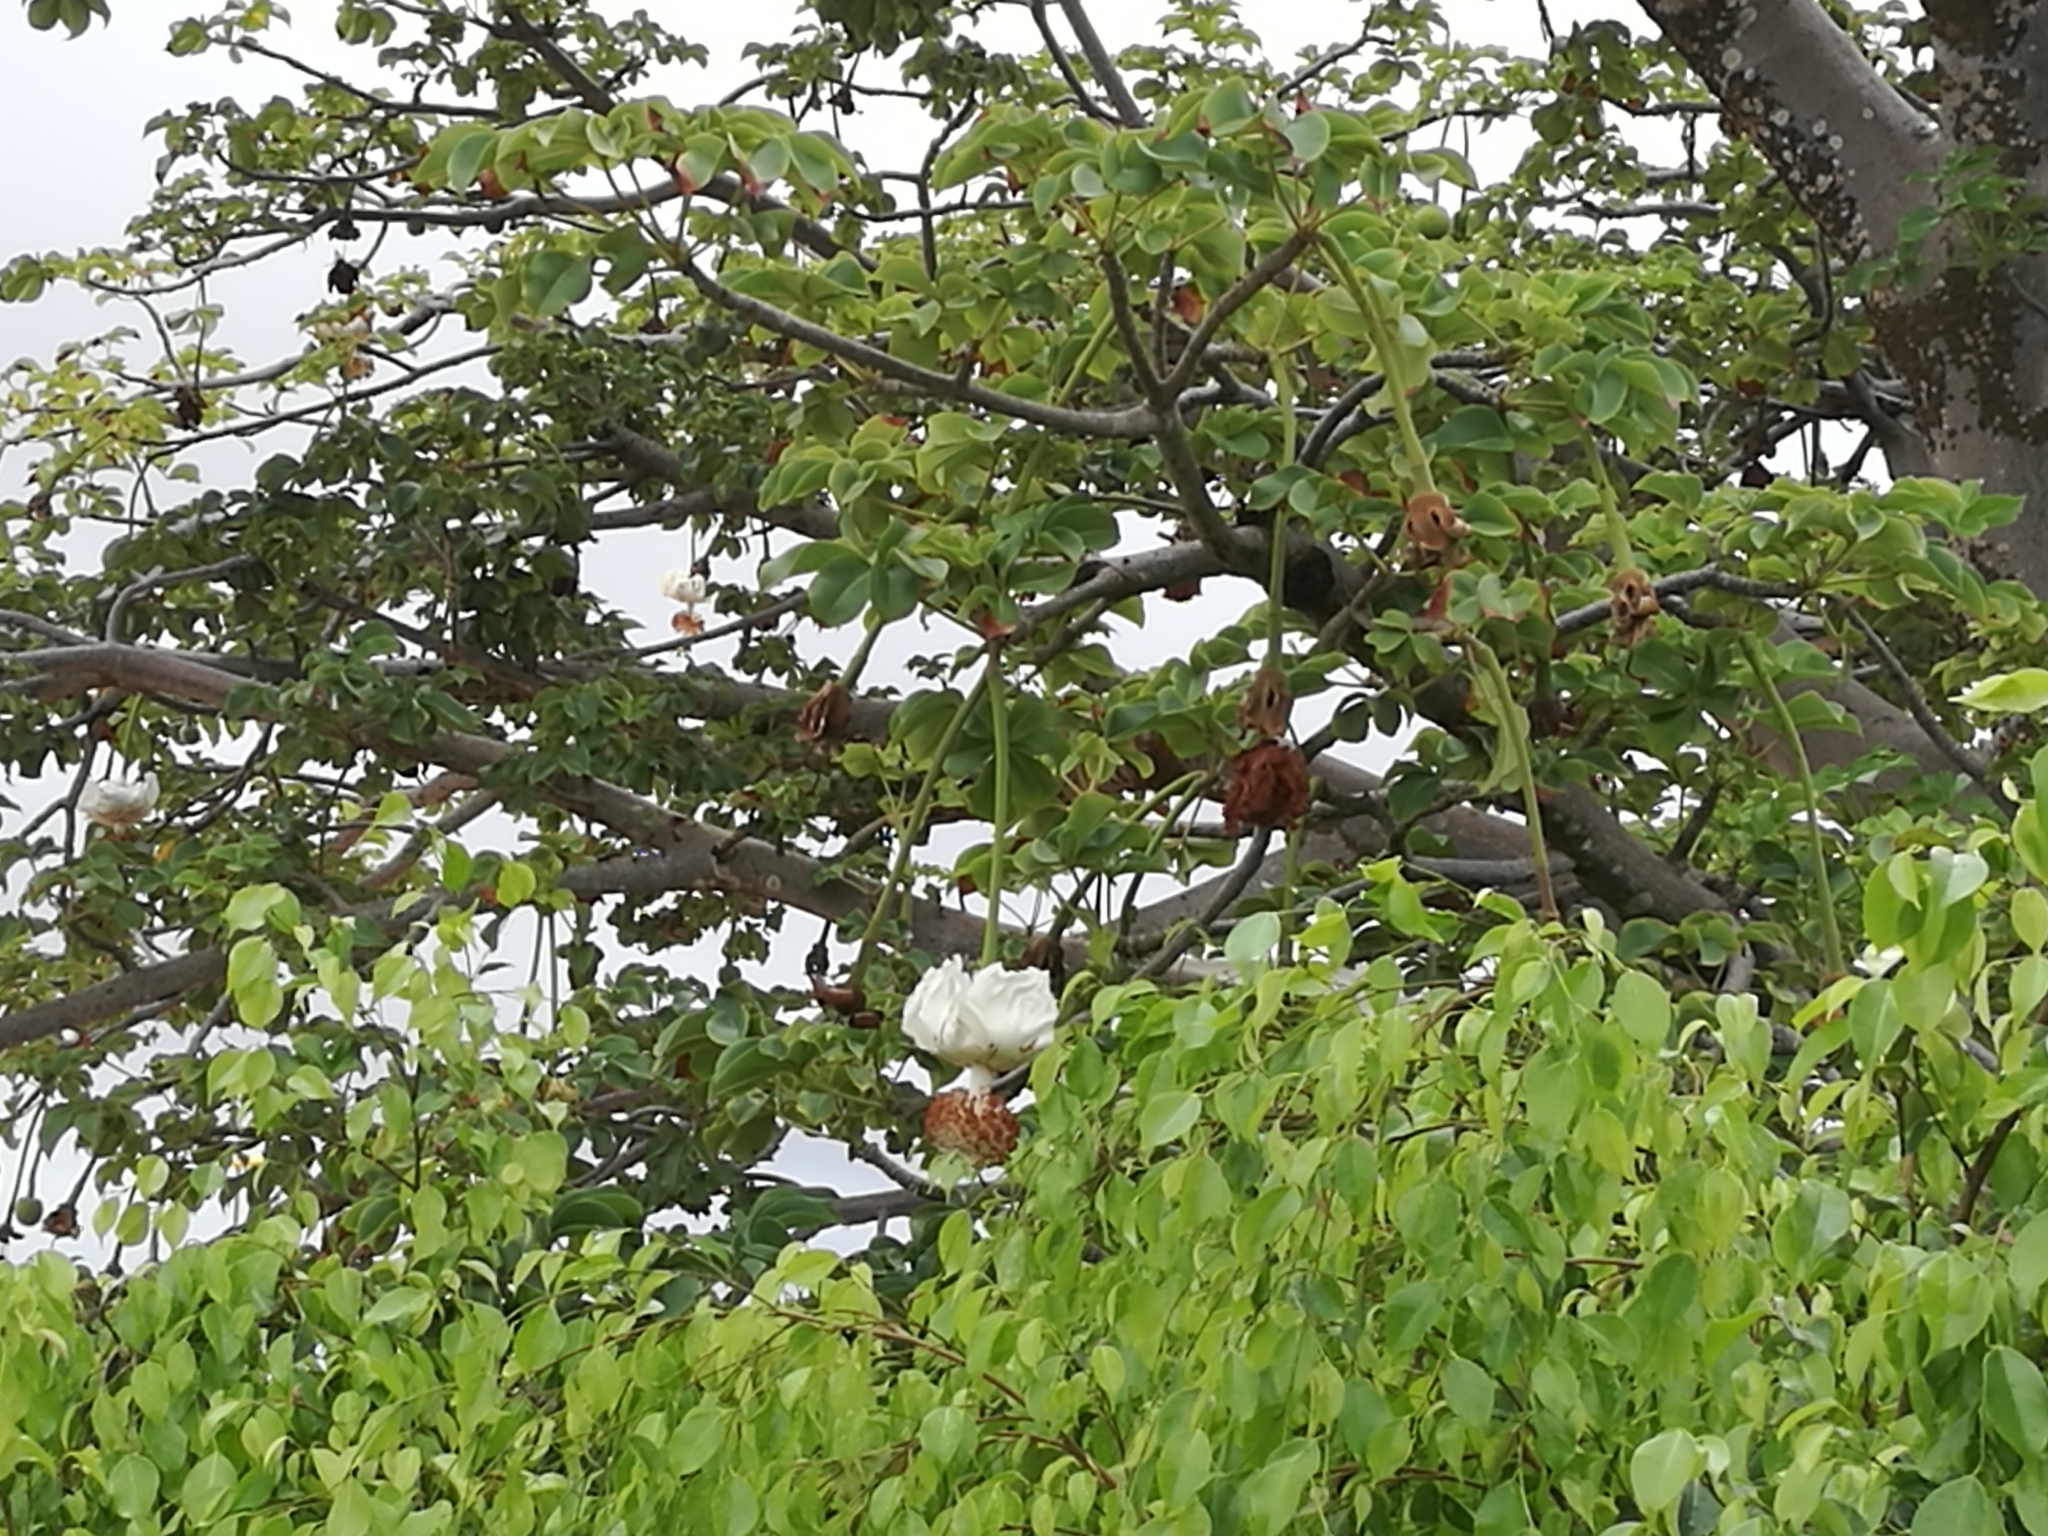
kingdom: Plantae
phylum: Tracheophyta
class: Magnoliopsida
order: Malvales
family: Malvaceae
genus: Adansonia
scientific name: Adansonia digitata
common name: Dead-rat-tree
